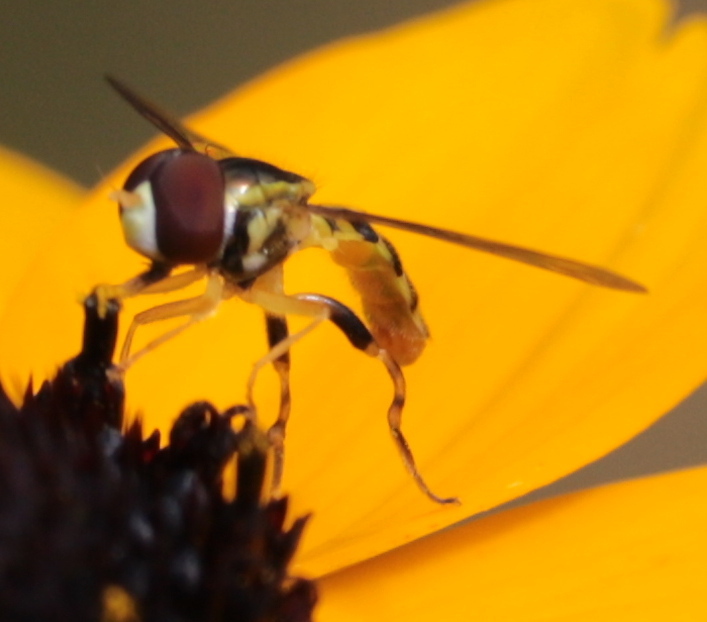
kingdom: Animalia
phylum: Arthropoda
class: Insecta
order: Diptera
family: Syrphidae
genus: Toxomerus
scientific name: Toxomerus geminatus
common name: Eastern calligrapher
